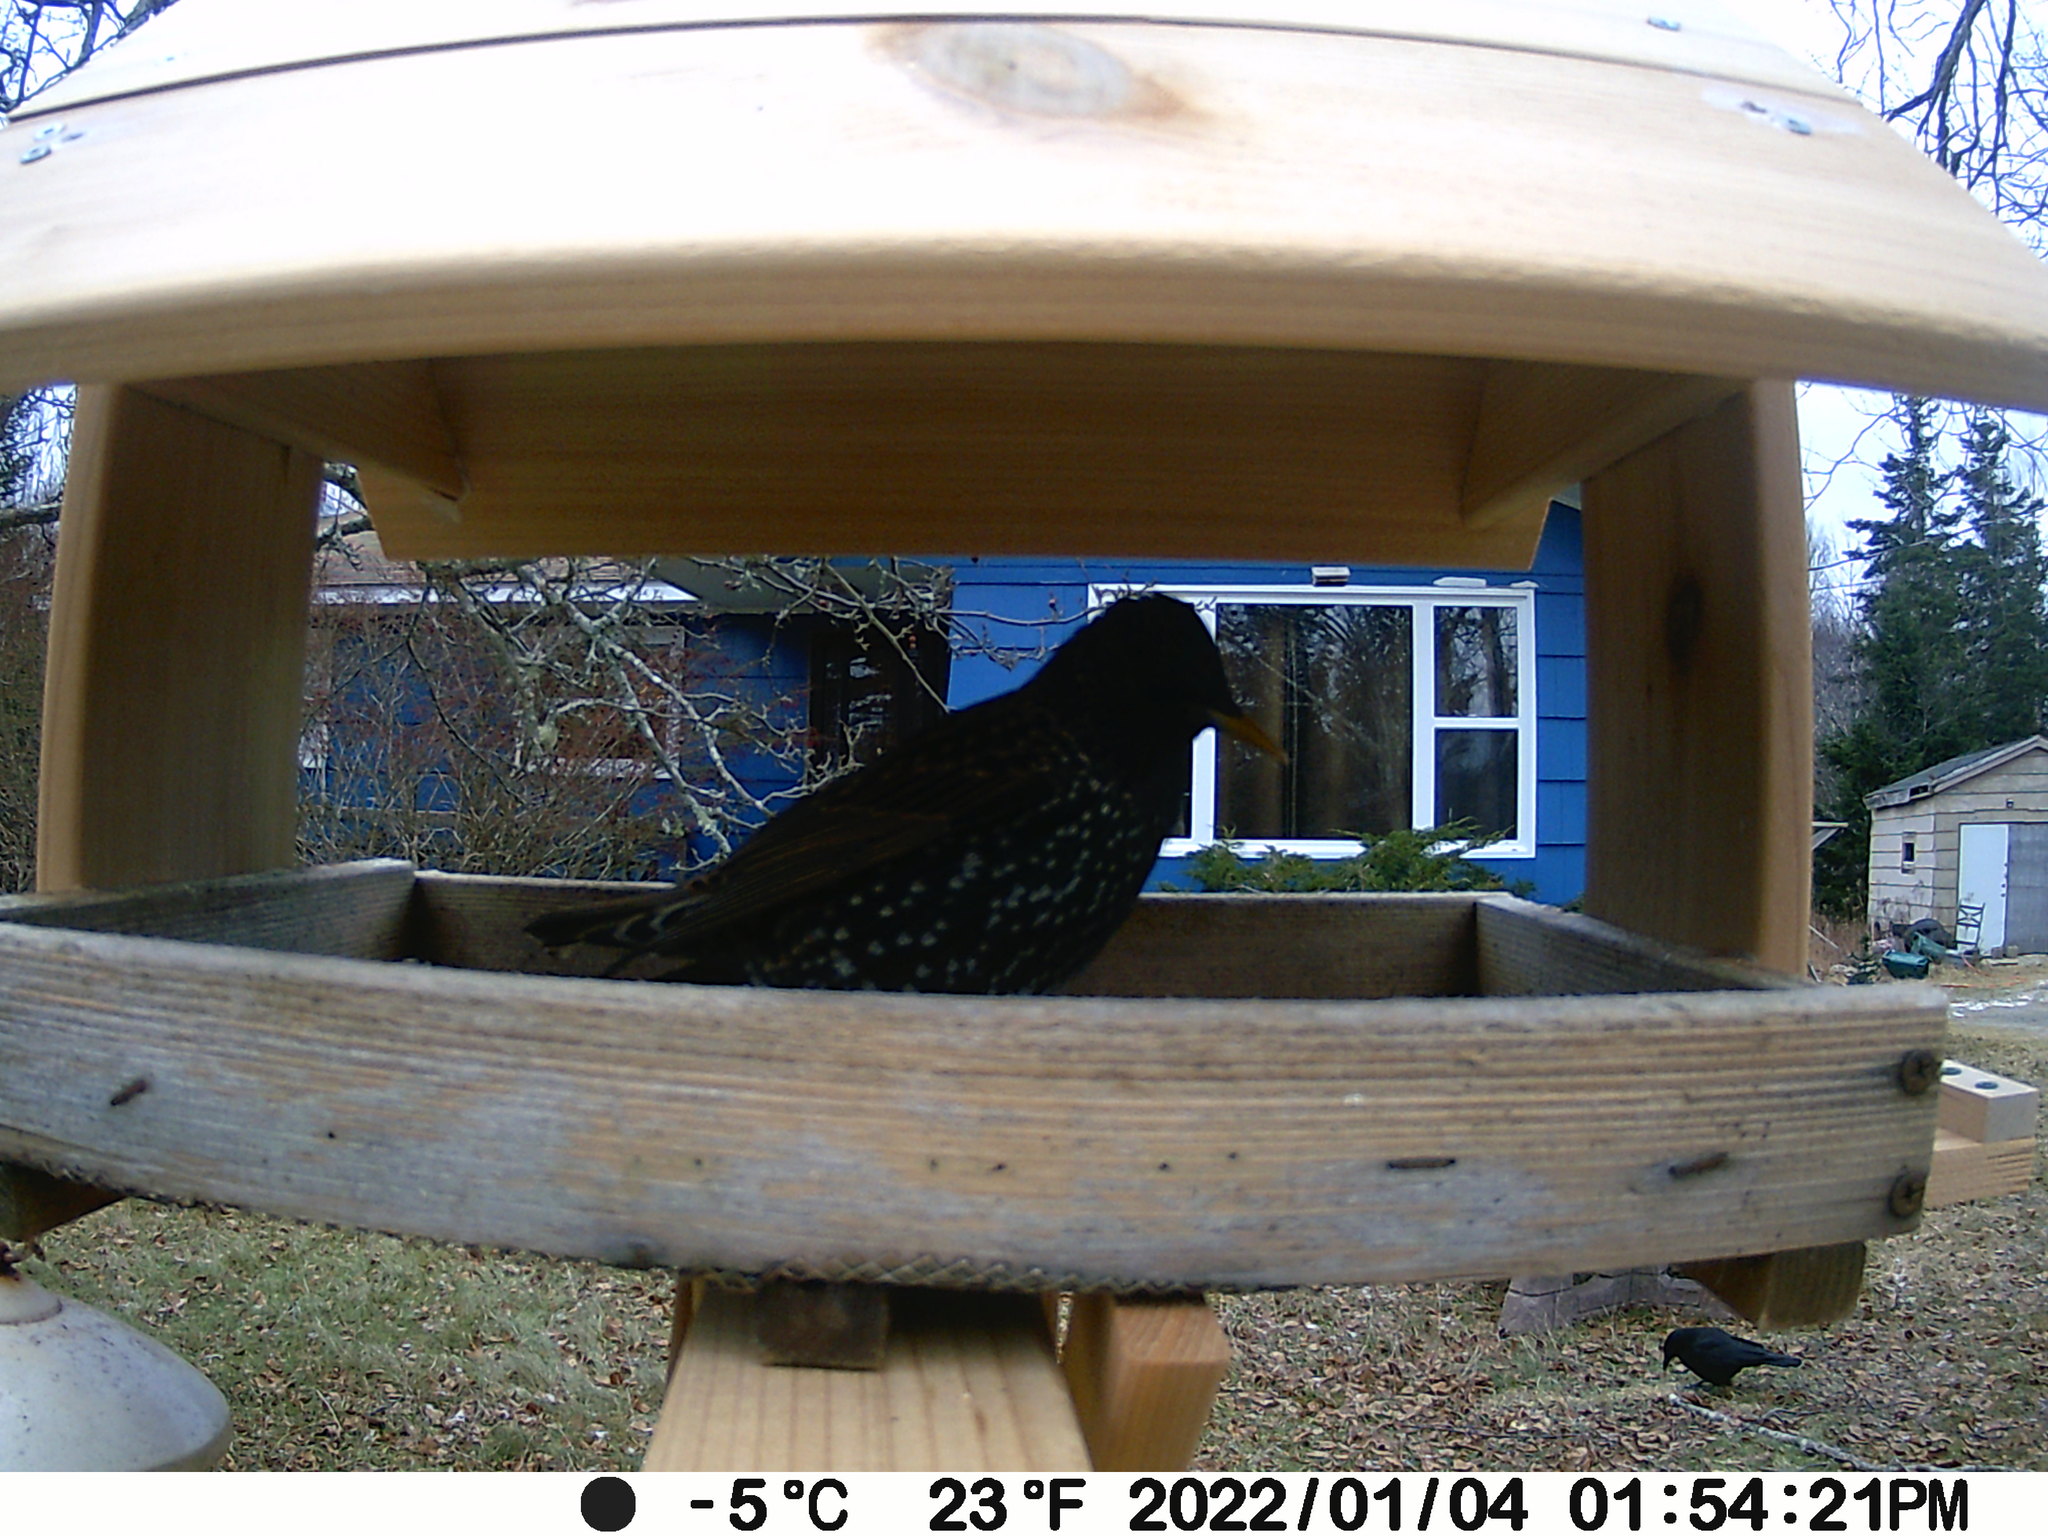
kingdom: Animalia
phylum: Chordata
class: Aves
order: Passeriformes
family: Sturnidae
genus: Sturnus
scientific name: Sturnus vulgaris
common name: Common starling
